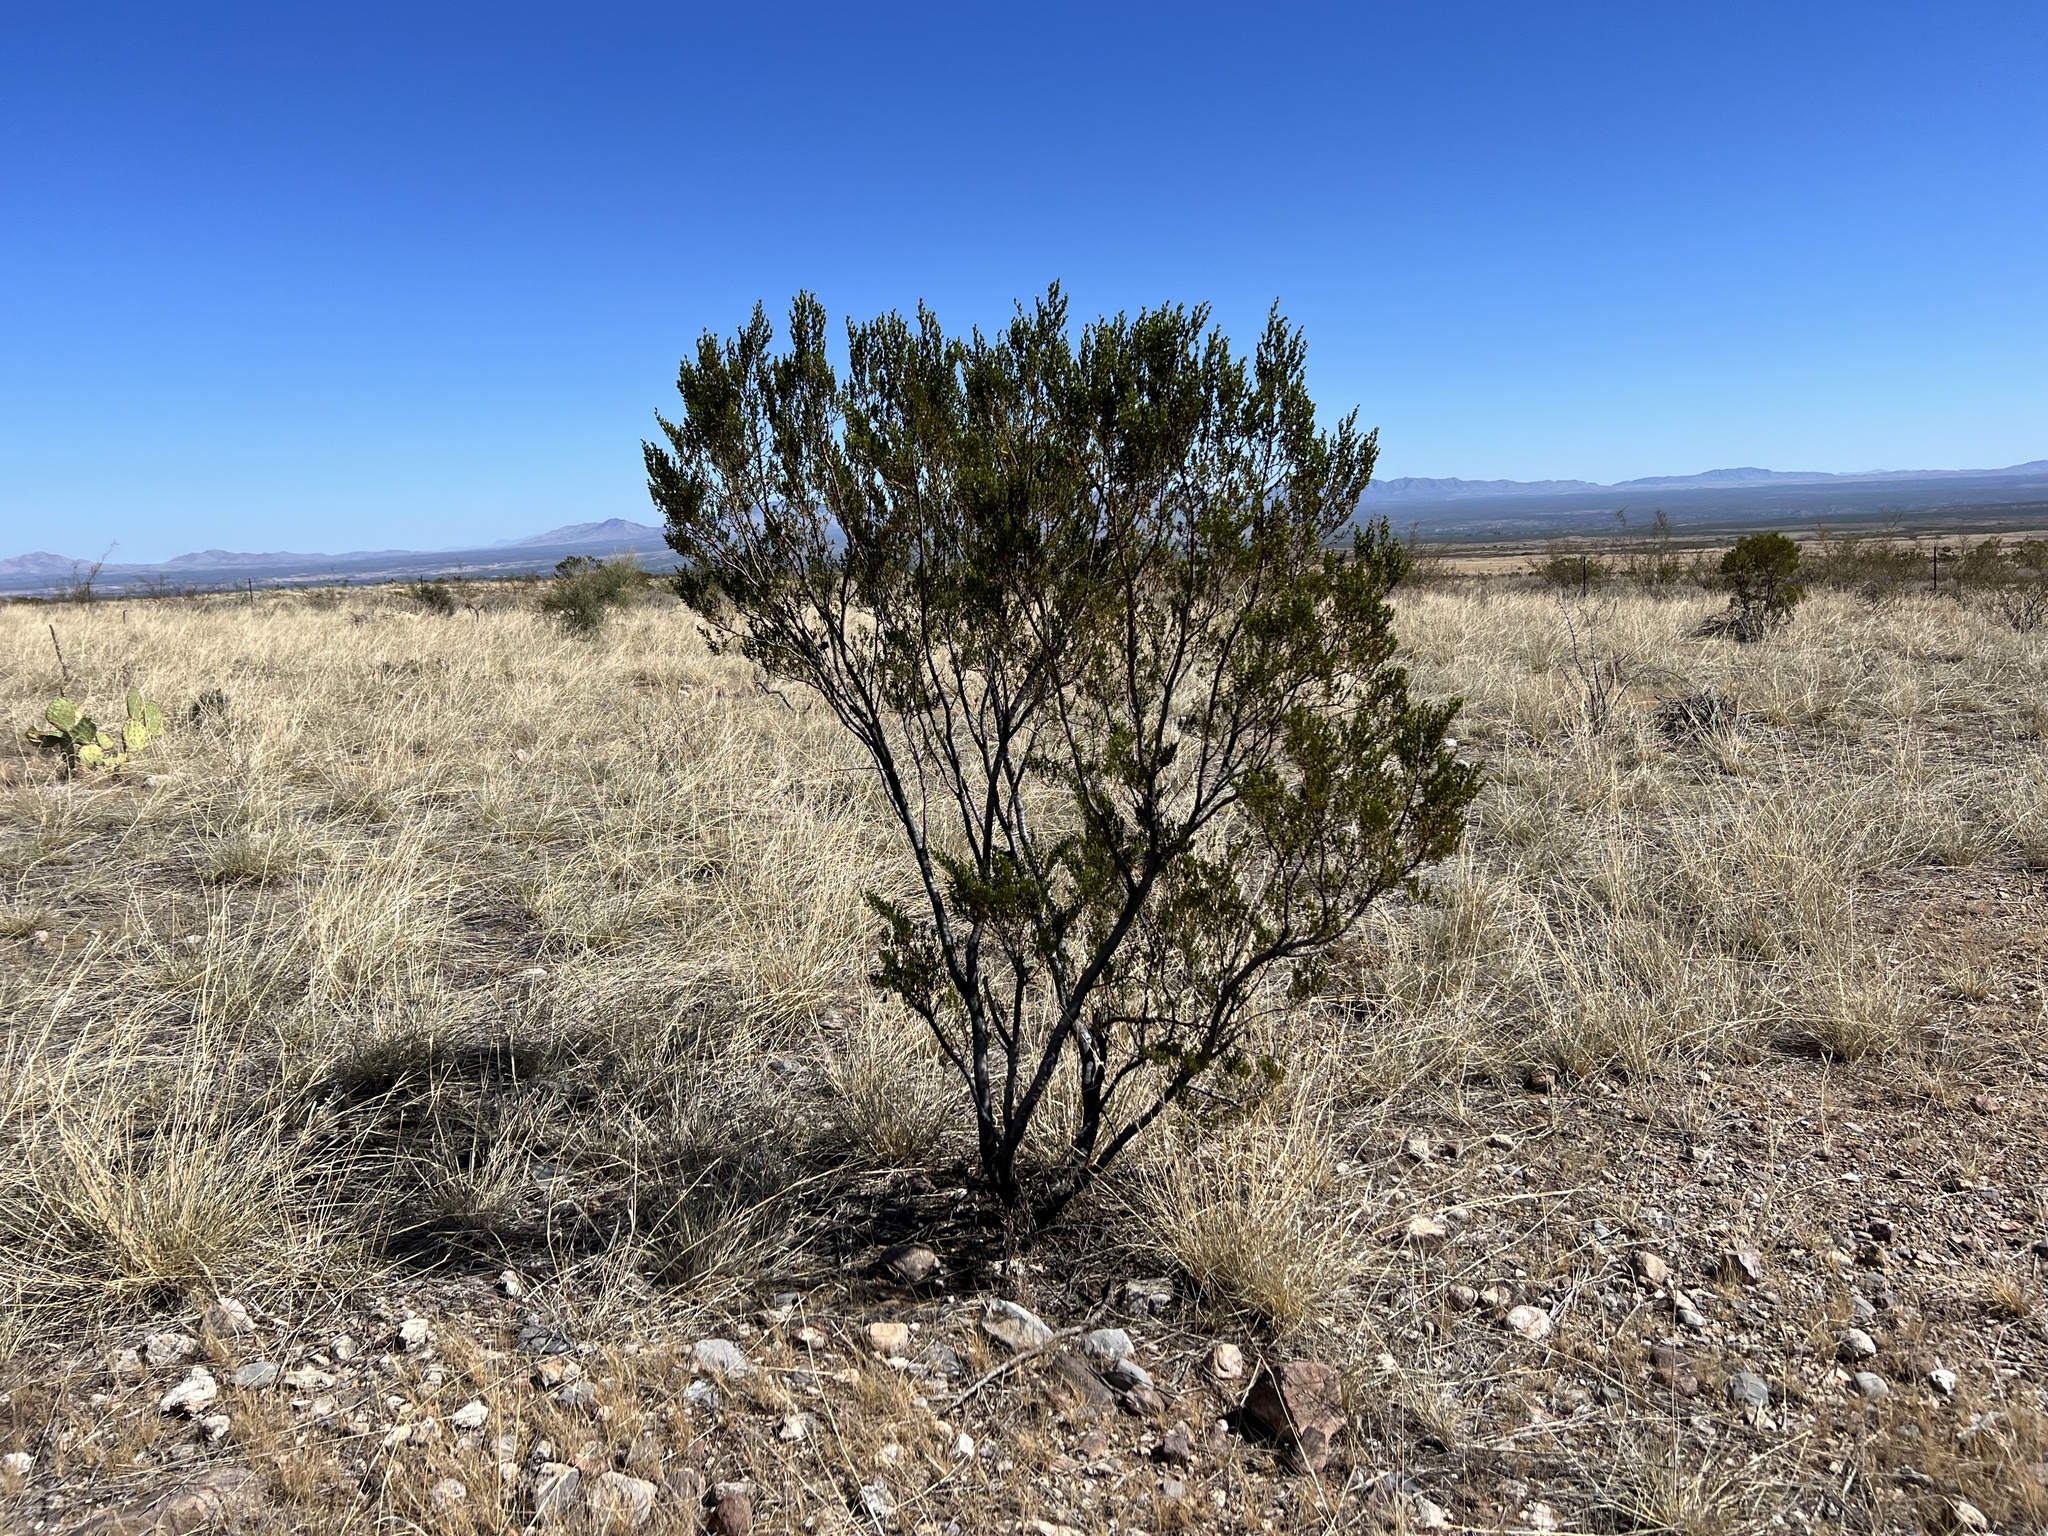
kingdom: Plantae
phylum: Tracheophyta
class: Magnoliopsida
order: Zygophyllales
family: Zygophyllaceae
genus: Larrea
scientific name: Larrea tridentata
